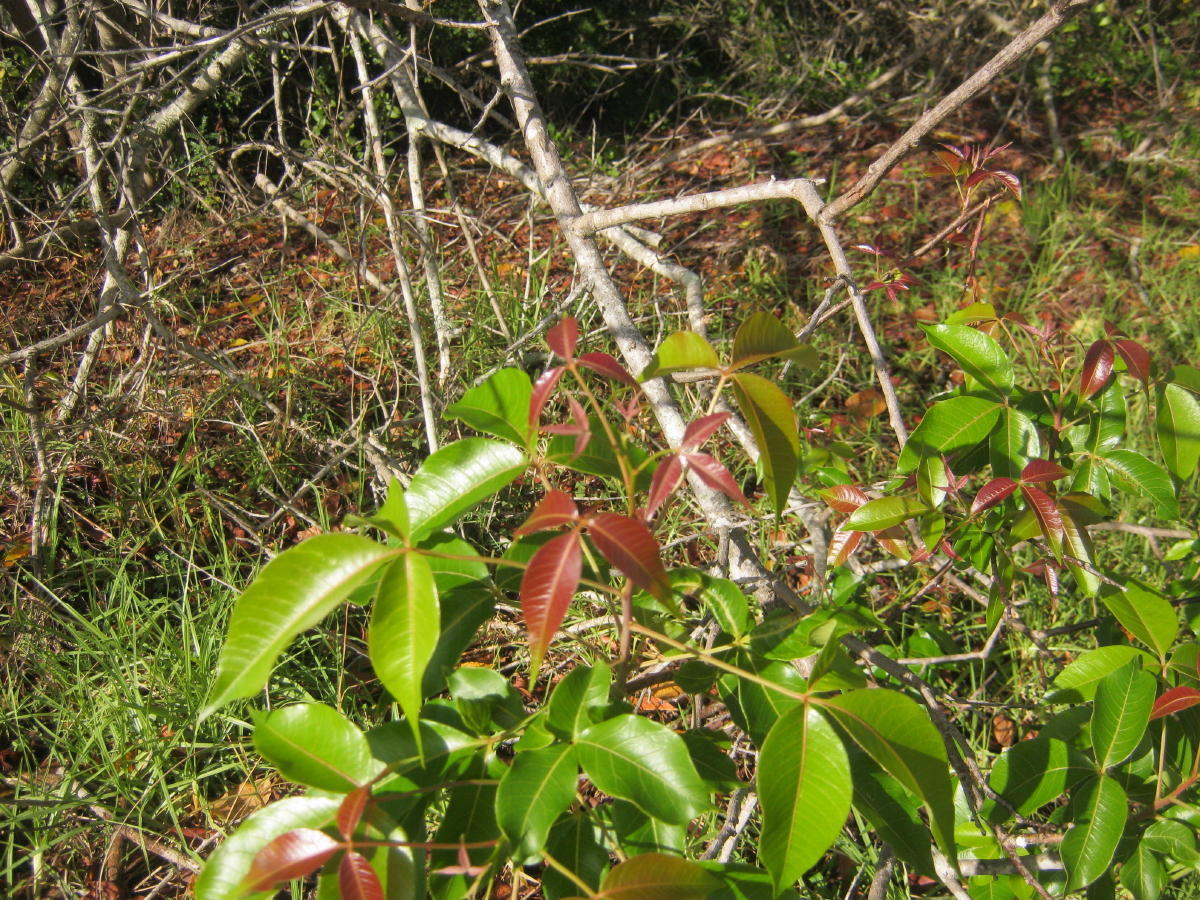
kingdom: Plantae
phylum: Tracheophyta
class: Magnoliopsida
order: Sapindales
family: Anacardiaceae
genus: Searsia
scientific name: Searsia chirindensis
